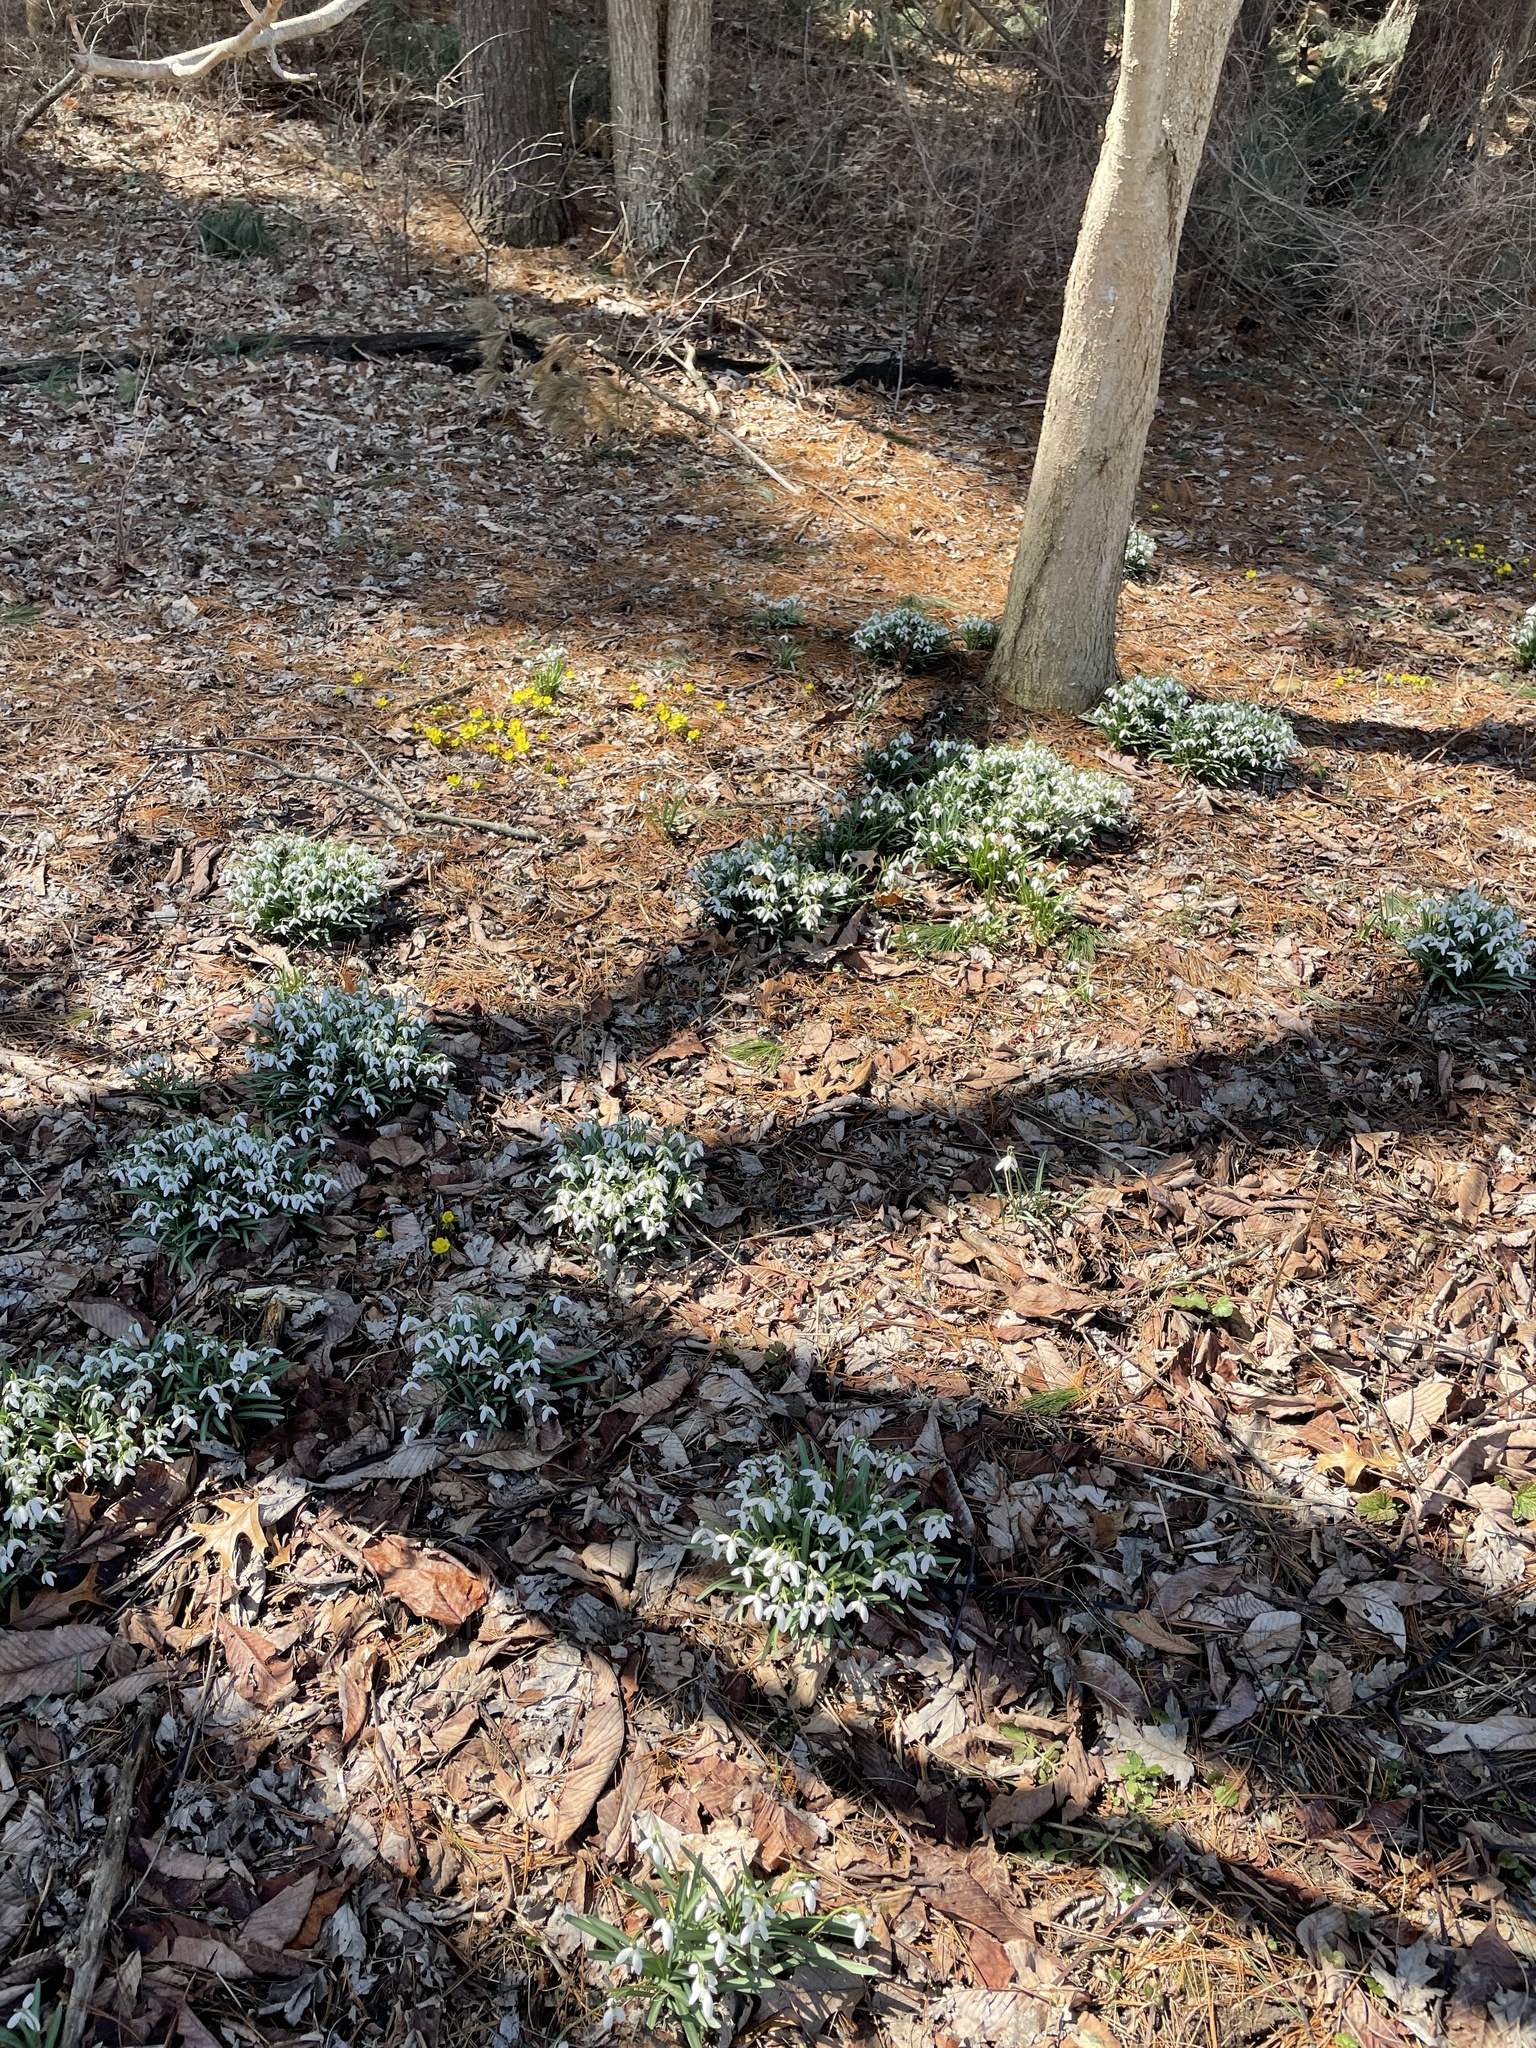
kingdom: Plantae
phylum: Tracheophyta
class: Liliopsida
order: Asparagales
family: Amaryllidaceae
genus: Galanthus
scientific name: Galanthus nivalis
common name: Snowdrop
